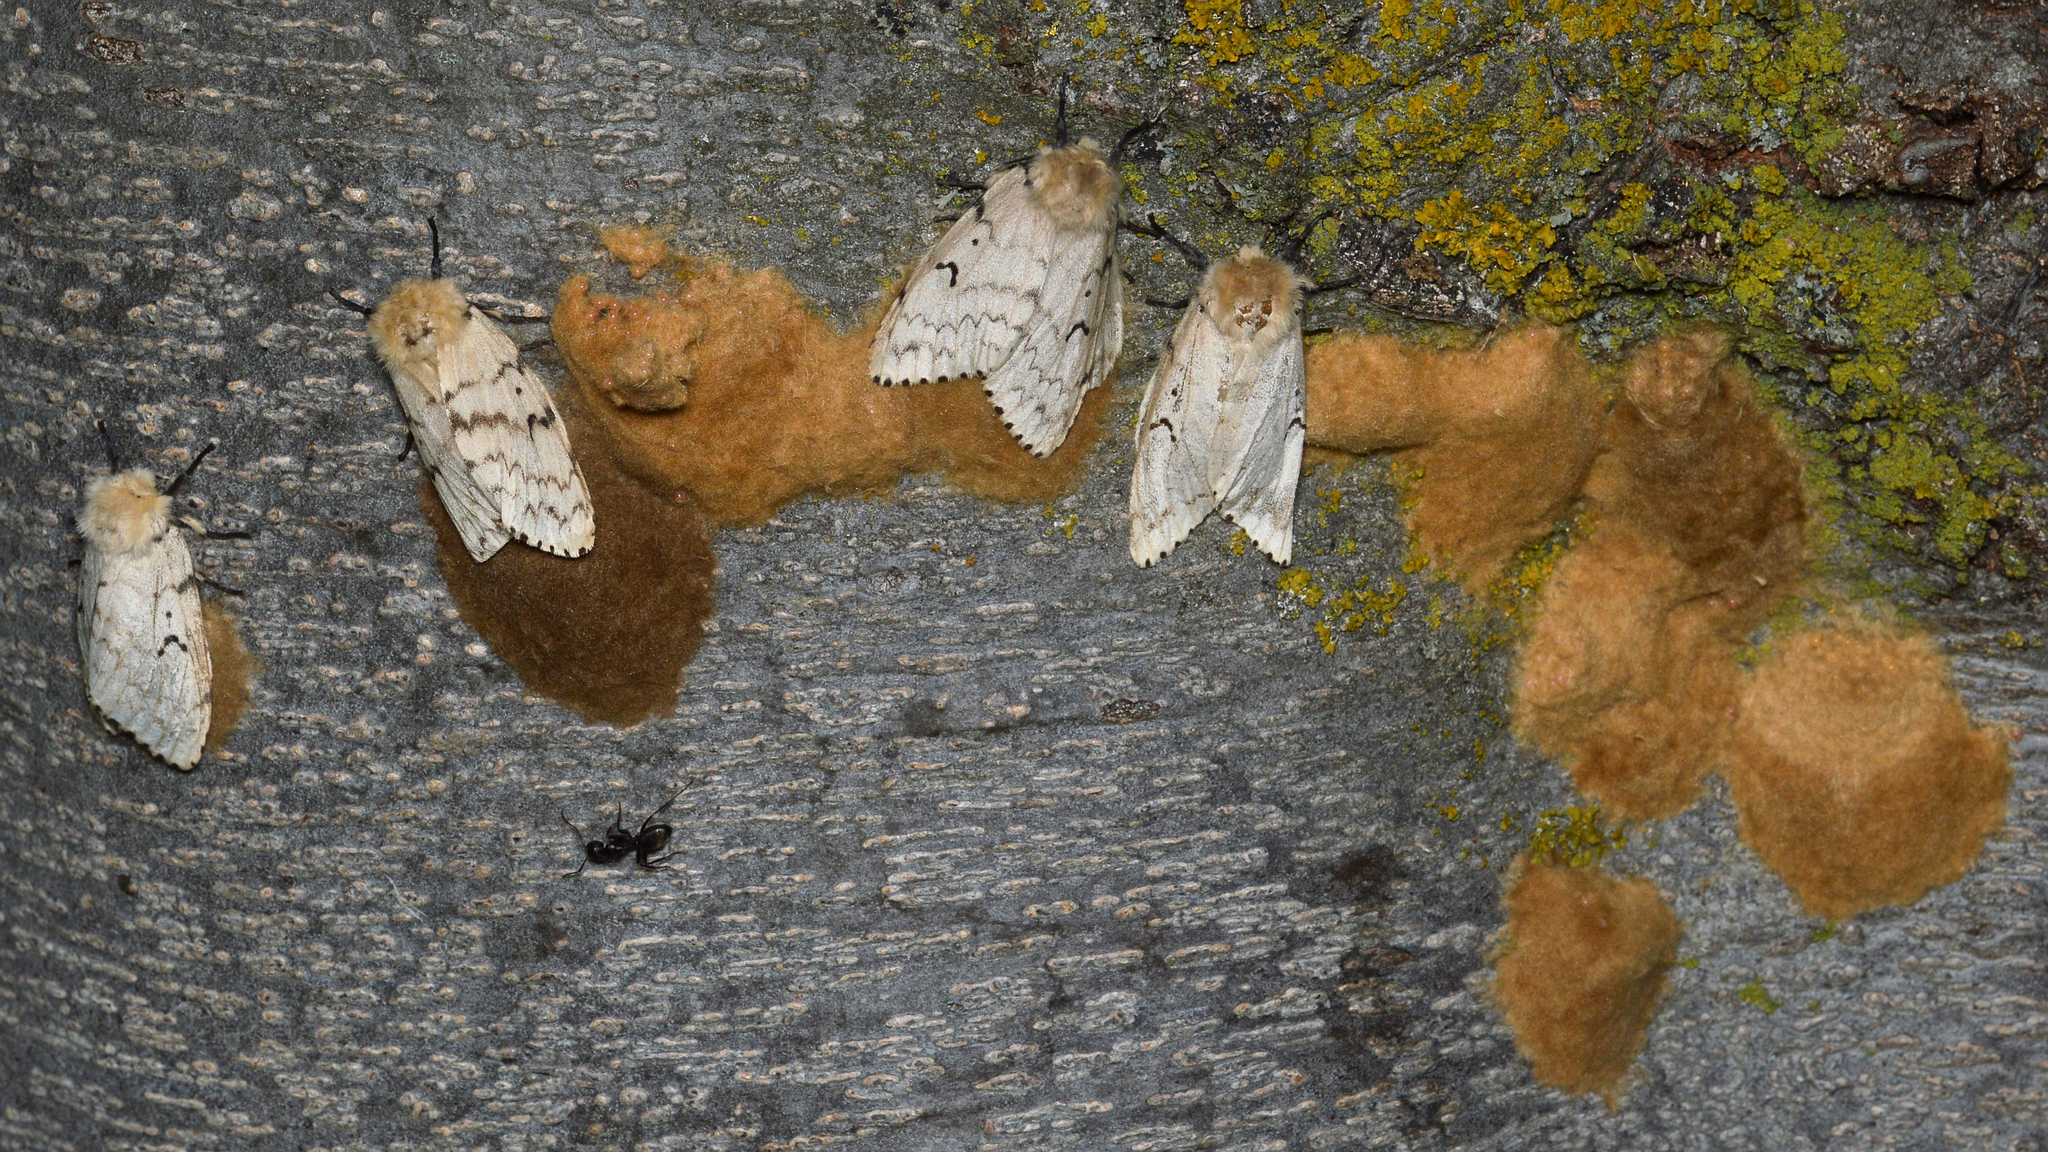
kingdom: Animalia
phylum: Arthropoda
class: Insecta
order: Lepidoptera
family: Erebidae
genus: Lymantria
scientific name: Lymantria dispar
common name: Gypsy moth
